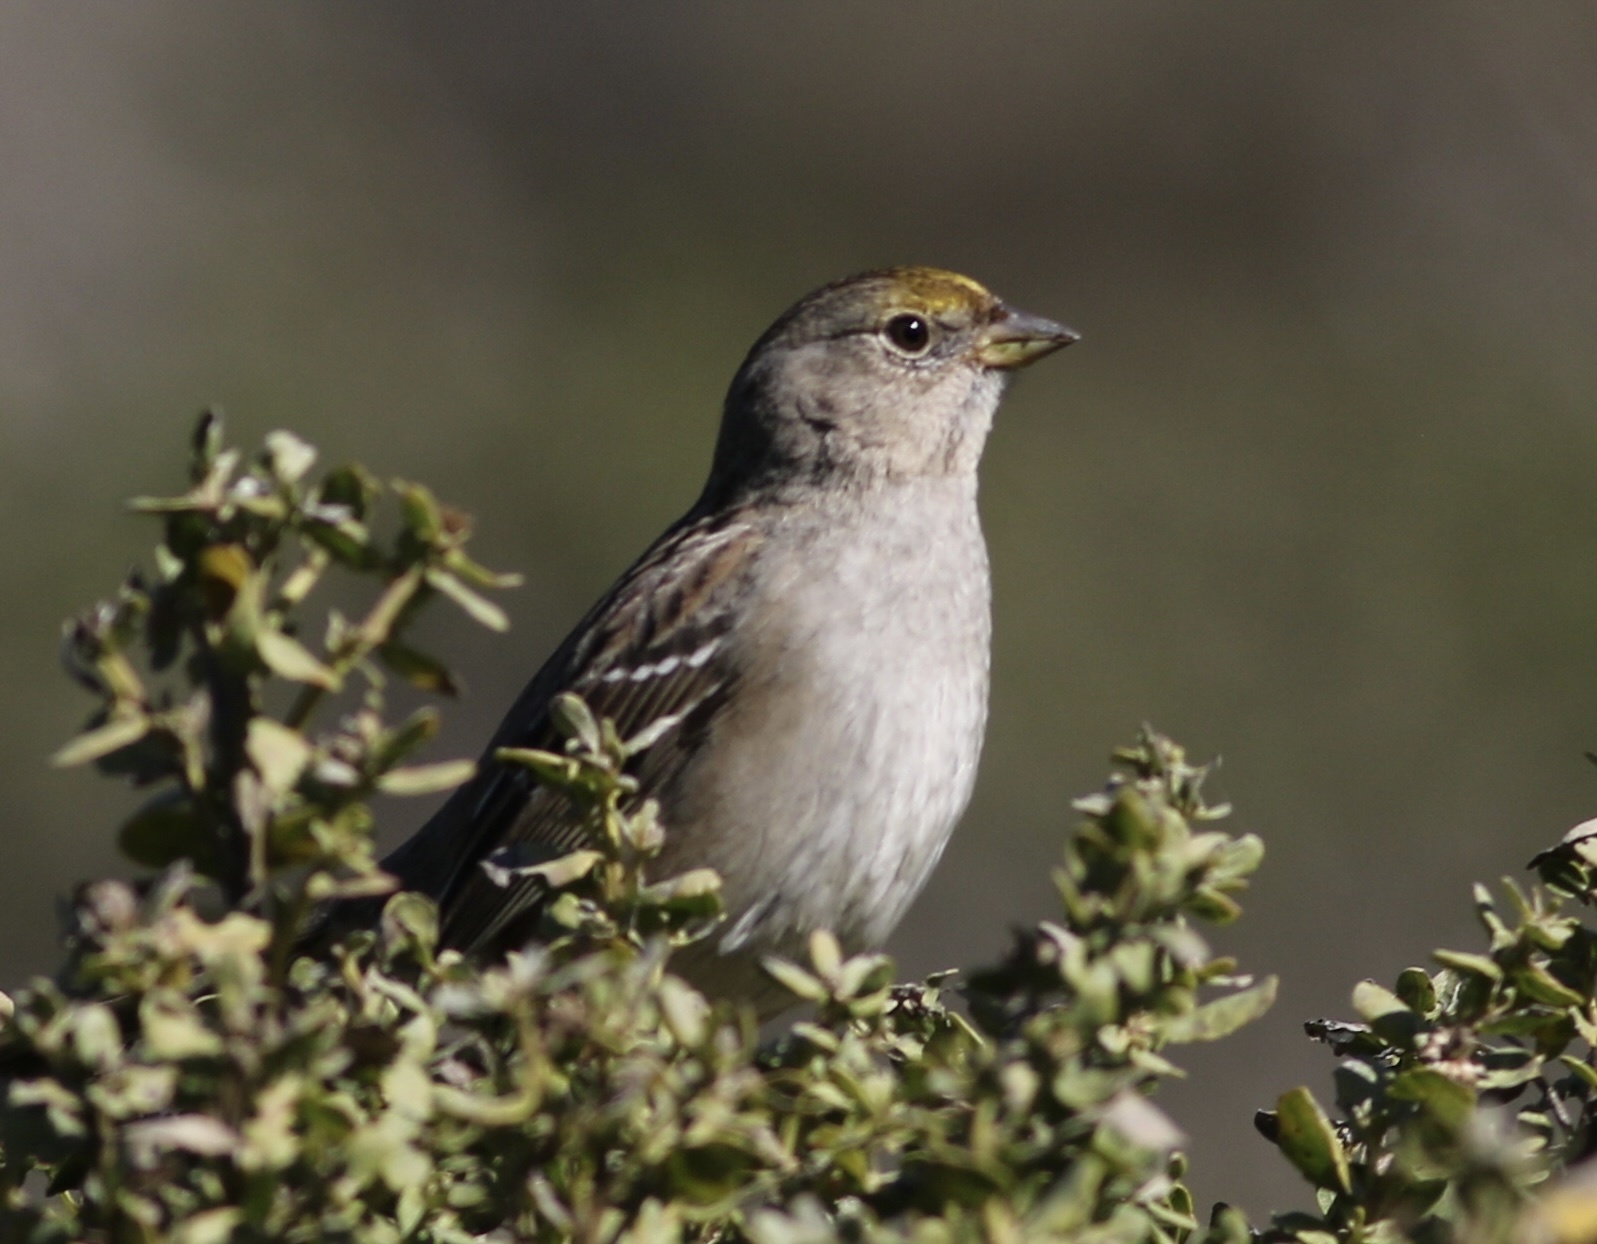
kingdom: Animalia
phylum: Chordata
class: Aves
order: Passeriformes
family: Passerellidae
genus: Zonotrichia
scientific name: Zonotrichia atricapilla
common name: Golden-crowned sparrow
